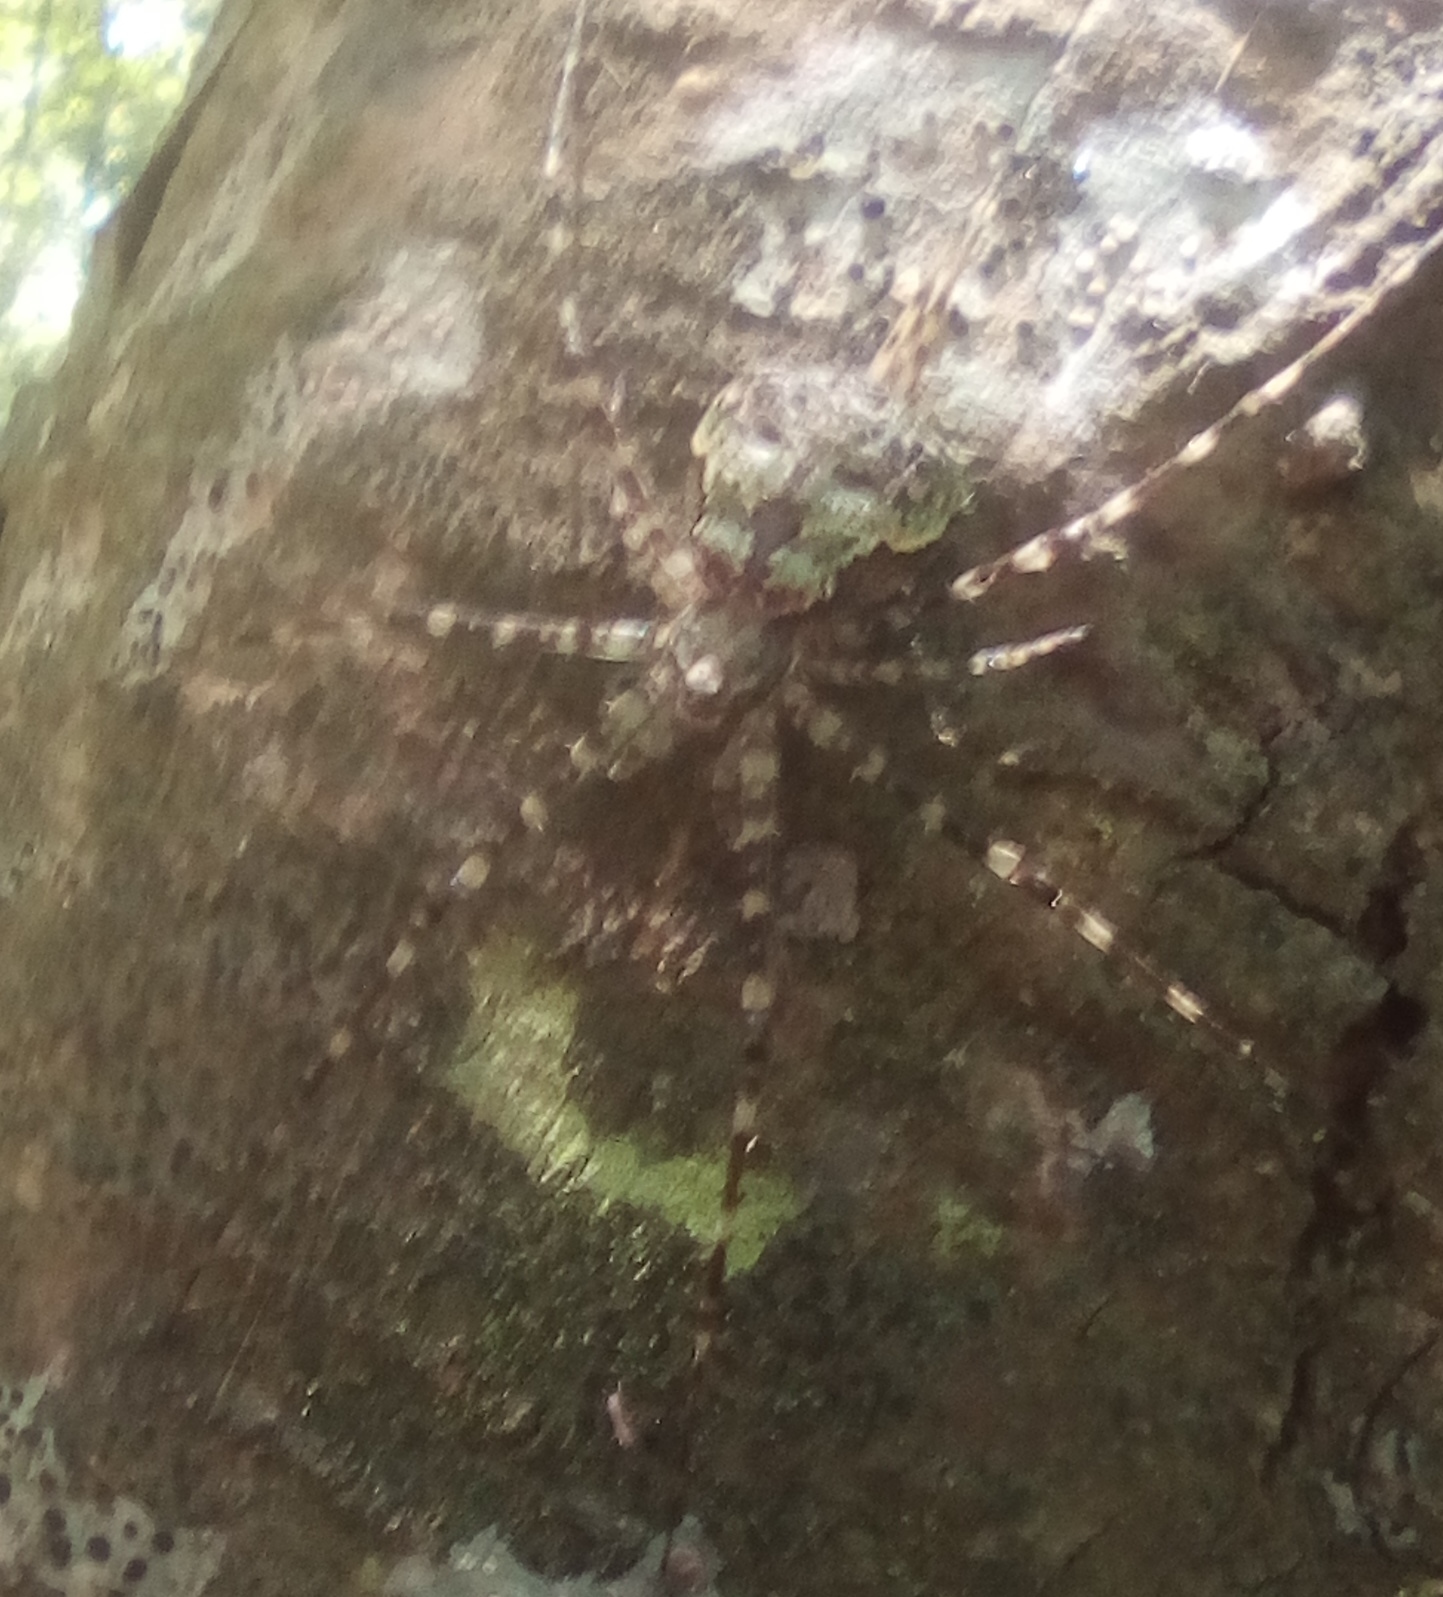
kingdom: Animalia
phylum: Arthropoda
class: Arachnida
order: Araneae
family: Hersiliidae
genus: Neotama
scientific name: Neotama mexicana
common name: Tree trunk spiders
